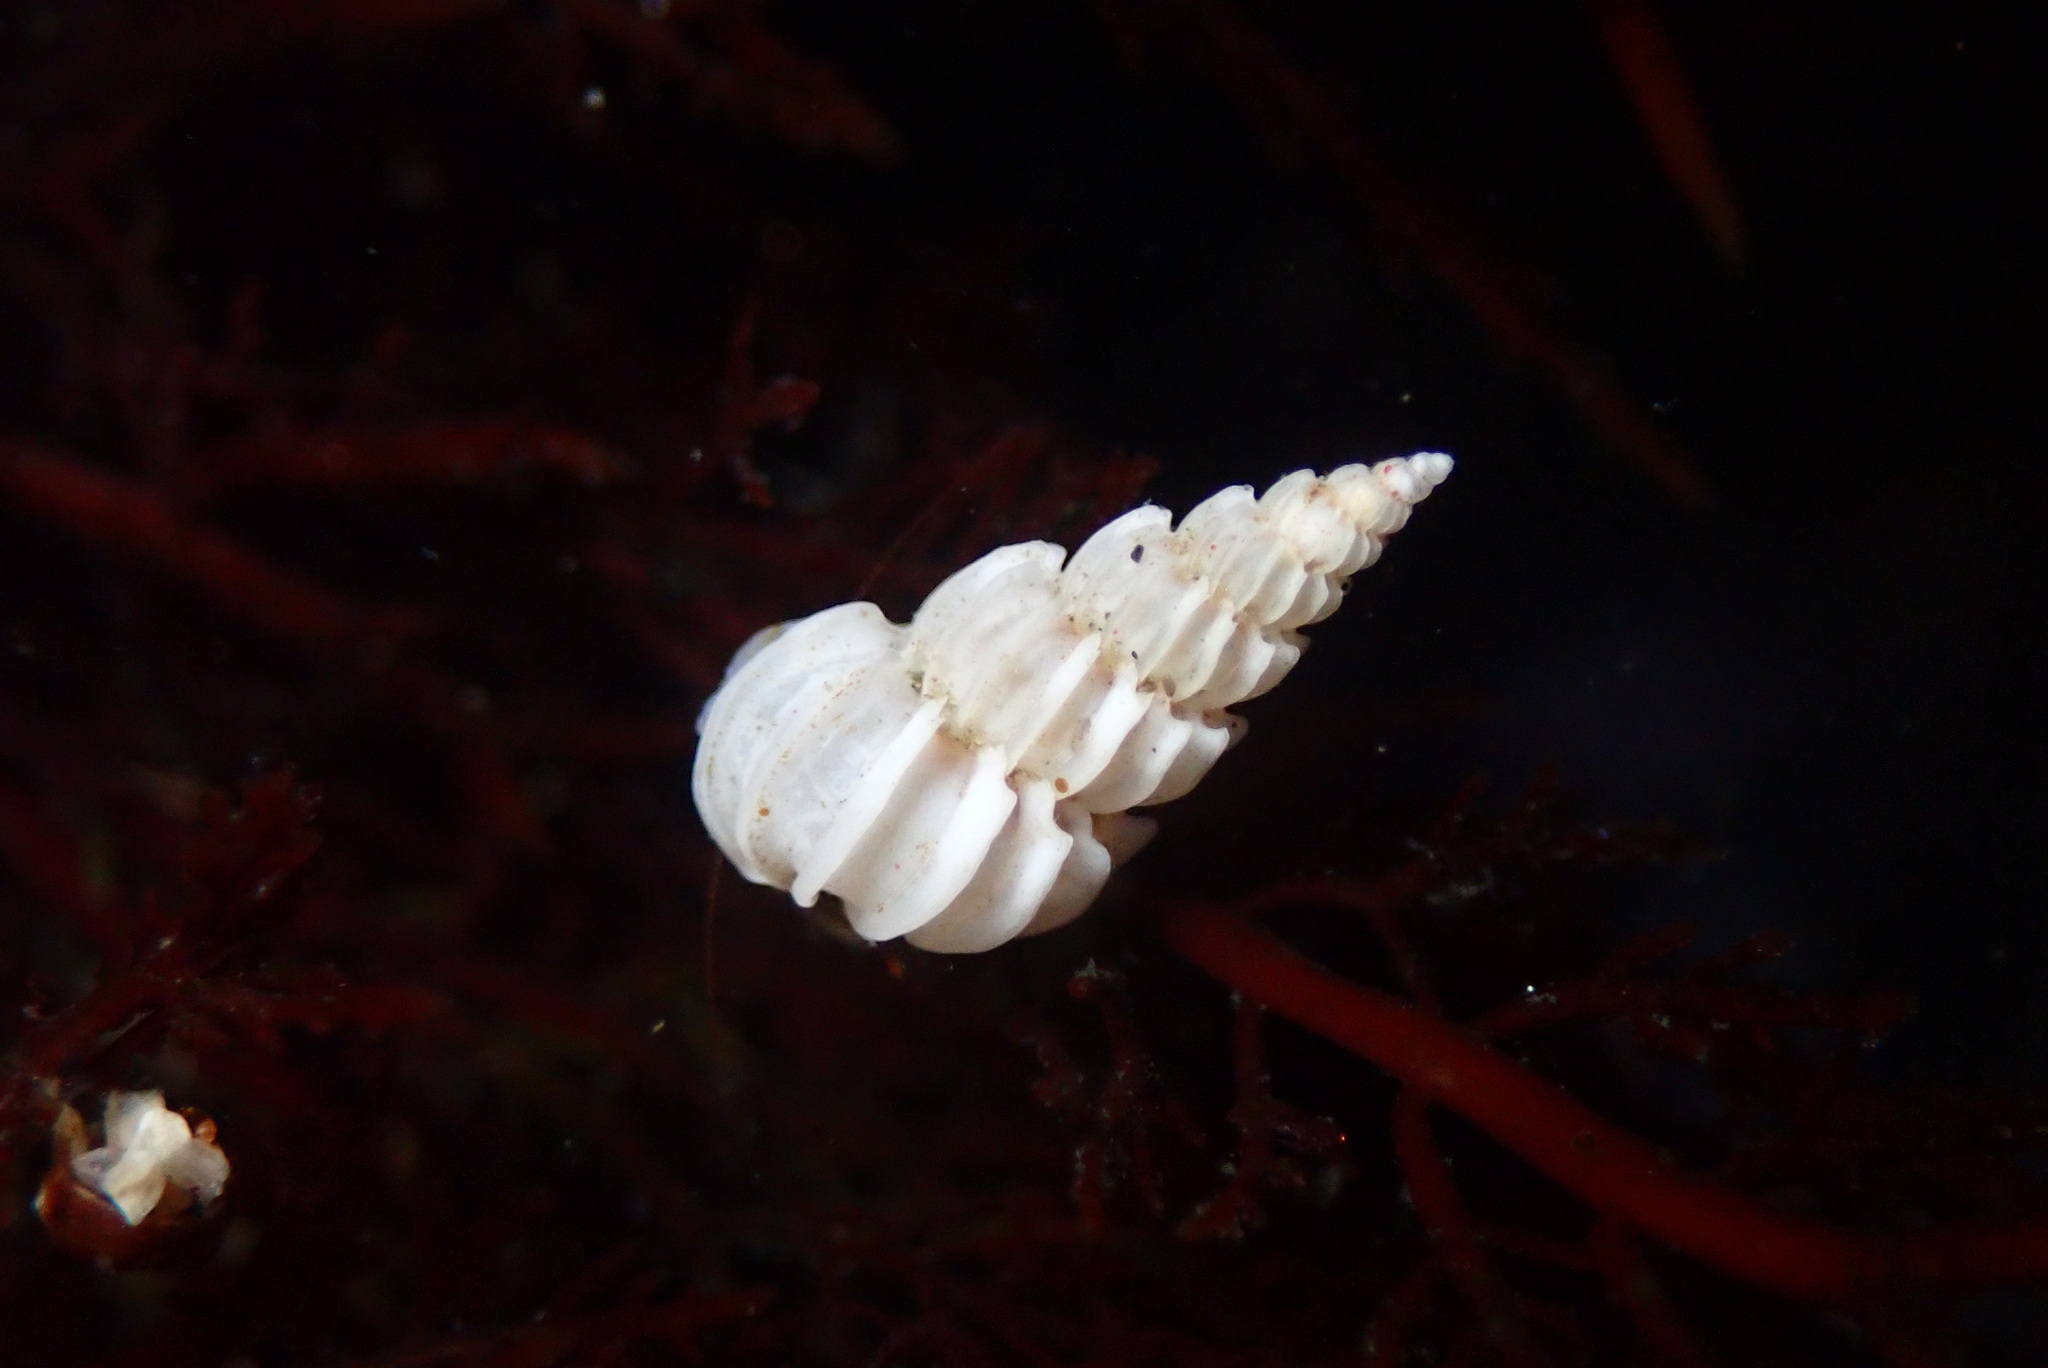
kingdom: Animalia
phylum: Mollusca
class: Gastropoda
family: Epitoniidae
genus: Epitonium
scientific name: Epitonium tinctum
